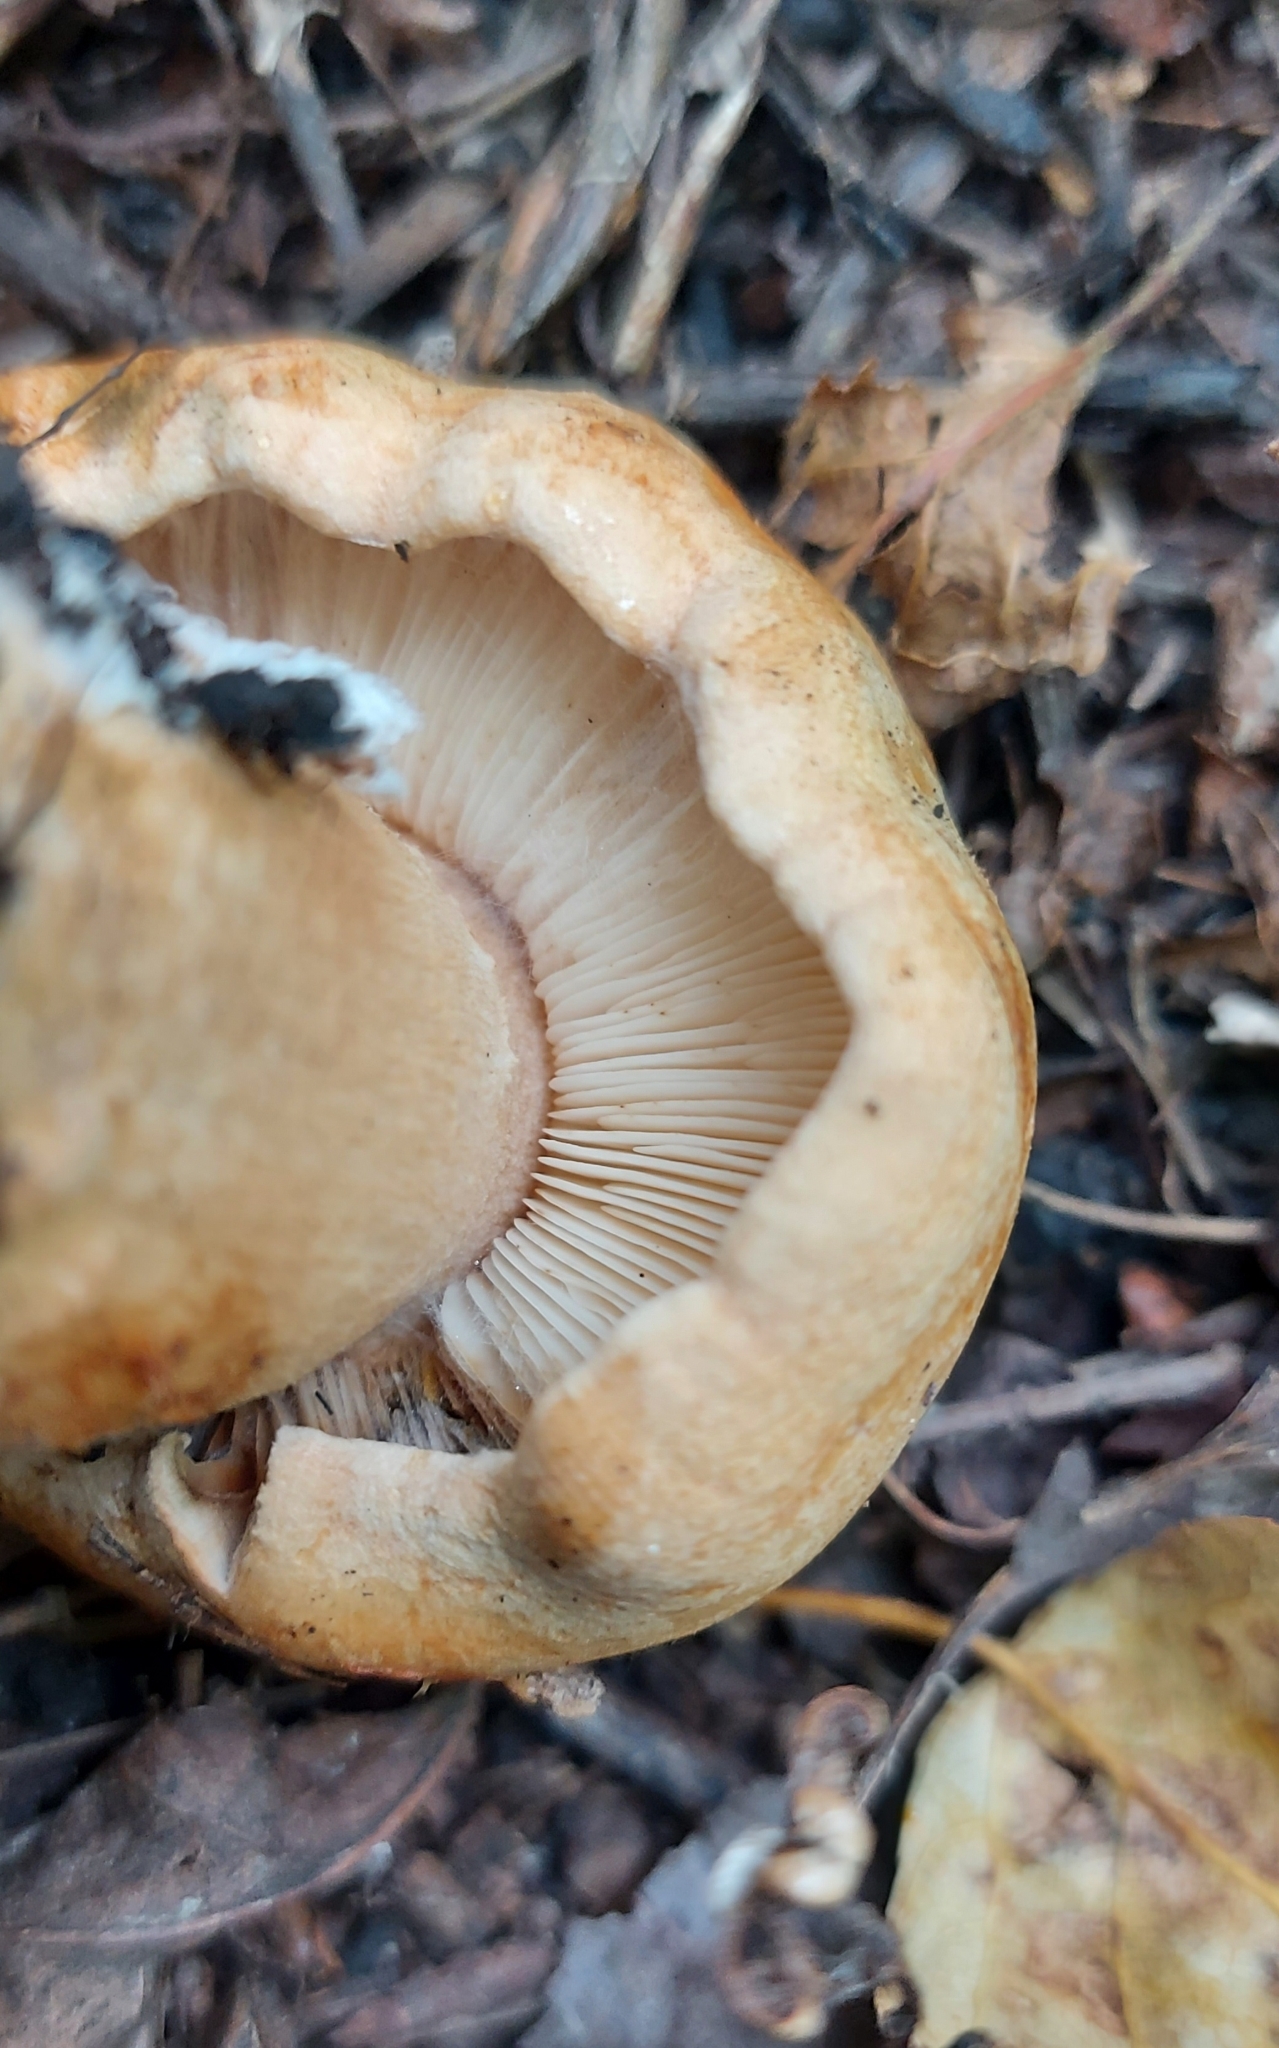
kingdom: Fungi
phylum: Basidiomycota
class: Agaricomycetes
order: Agaricales
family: Tricholomataceae
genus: Tricholoma
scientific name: Tricholoma populinum
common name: Poplar knight
